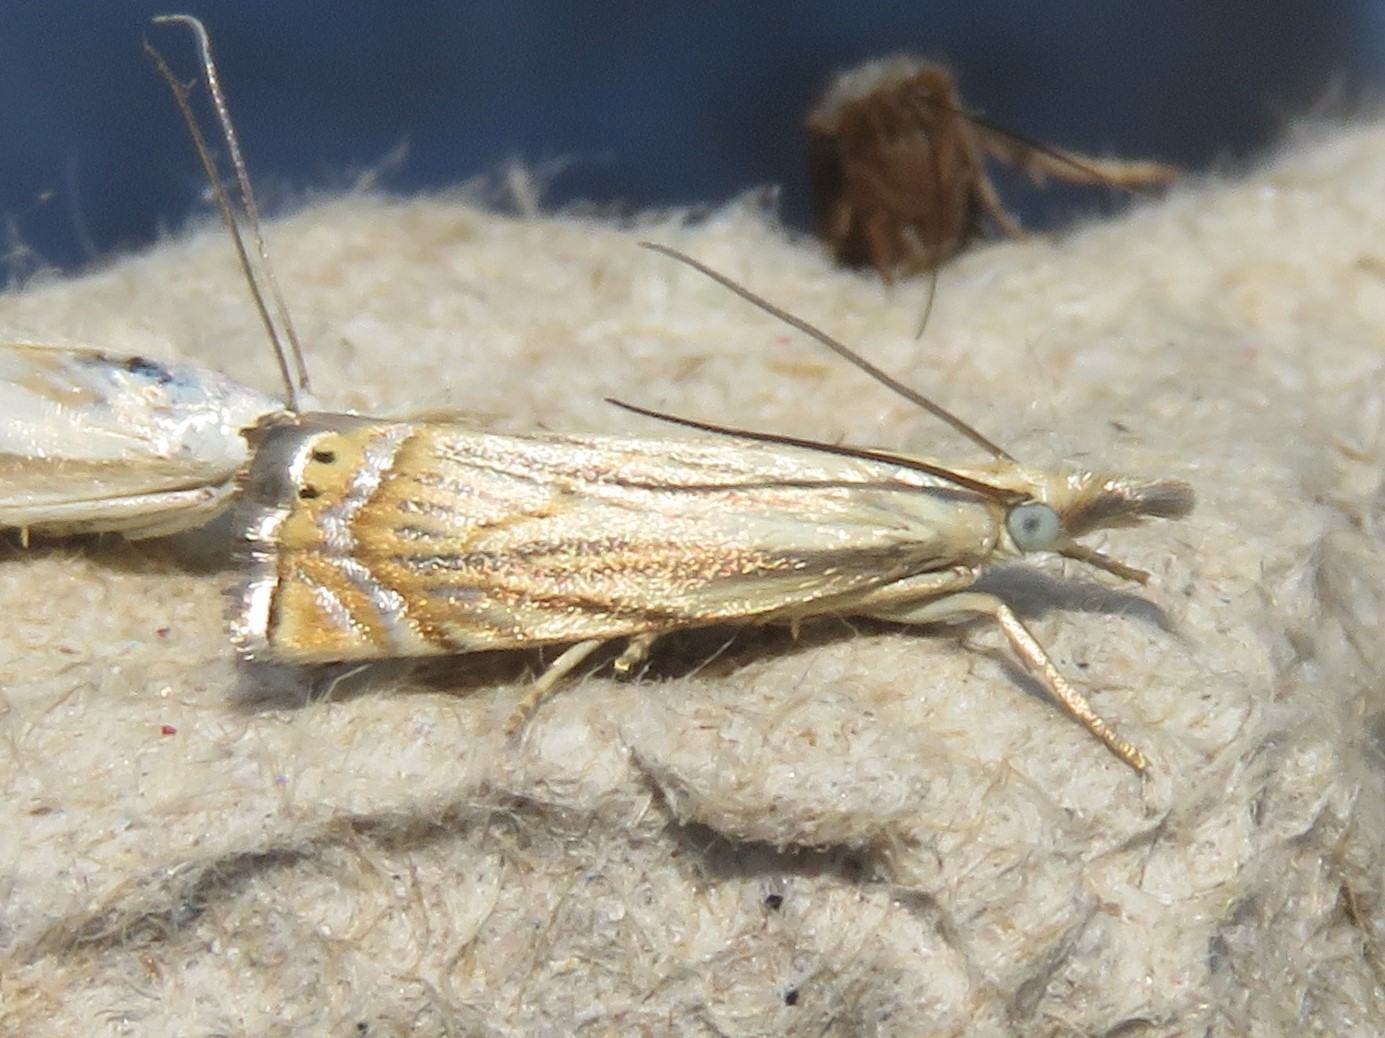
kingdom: Animalia
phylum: Arthropoda
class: Insecta
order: Lepidoptera
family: Crambidae
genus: Chrysoteuchia
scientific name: Chrysoteuchia topiarius
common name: Topiary grass-veneer
